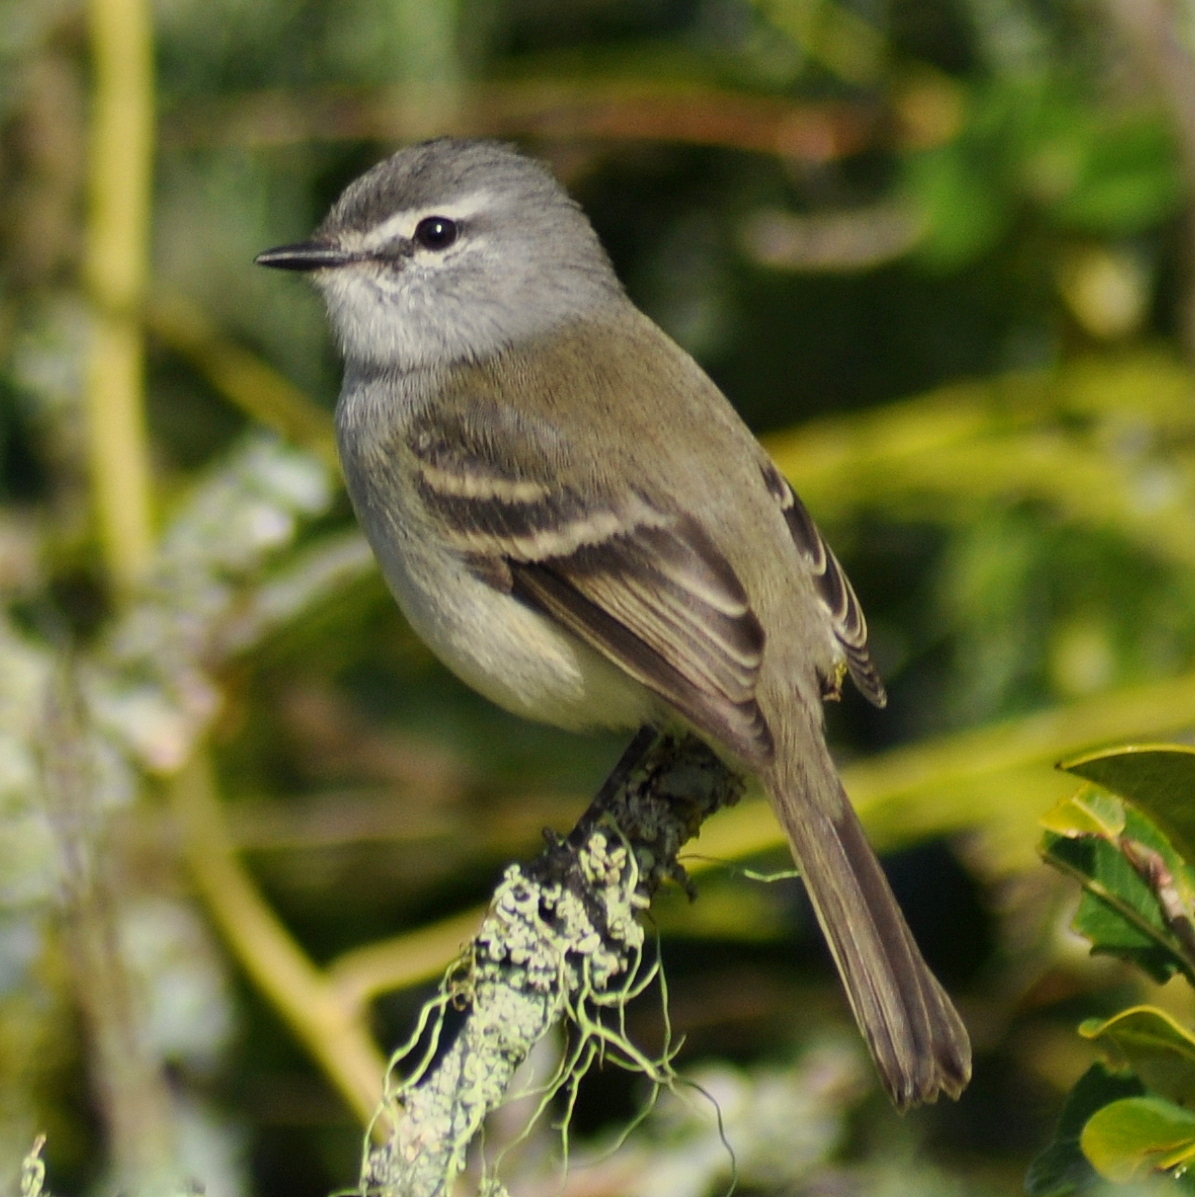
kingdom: Animalia
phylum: Chordata
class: Aves
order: Passeriformes
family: Tyrannidae
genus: Serpophaga
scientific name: Serpophaga subcristata
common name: White-crested tyrannulet
